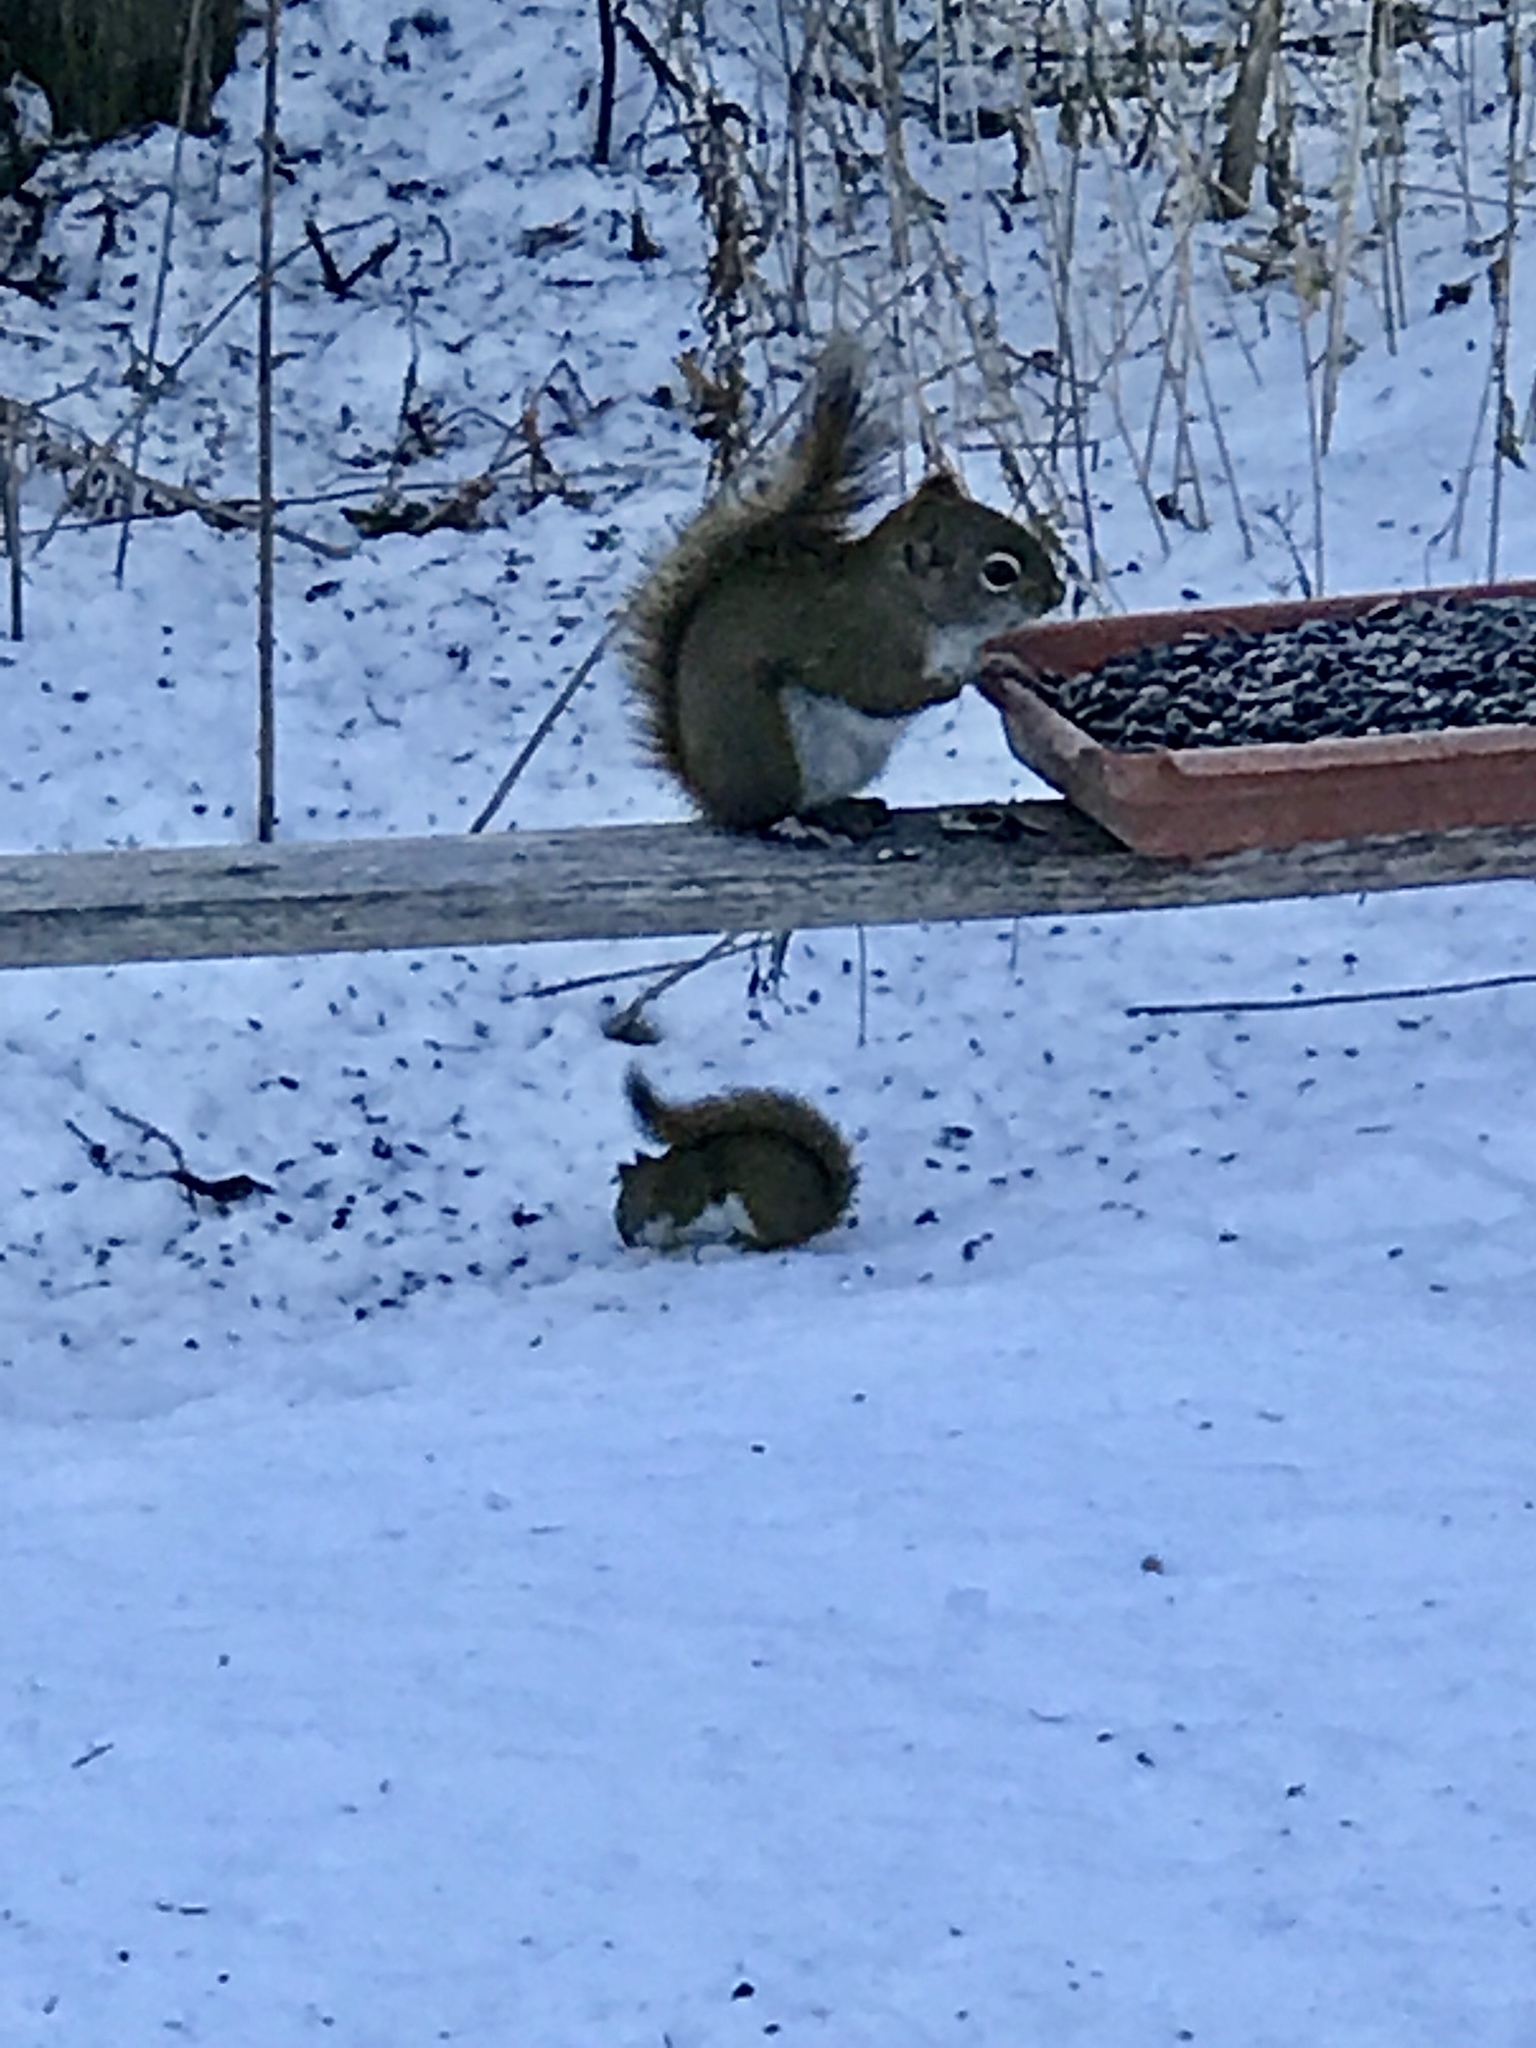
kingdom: Animalia
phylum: Chordata
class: Mammalia
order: Rodentia
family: Sciuridae
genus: Tamiasciurus
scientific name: Tamiasciurus hudsonicus
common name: Red squirrel
